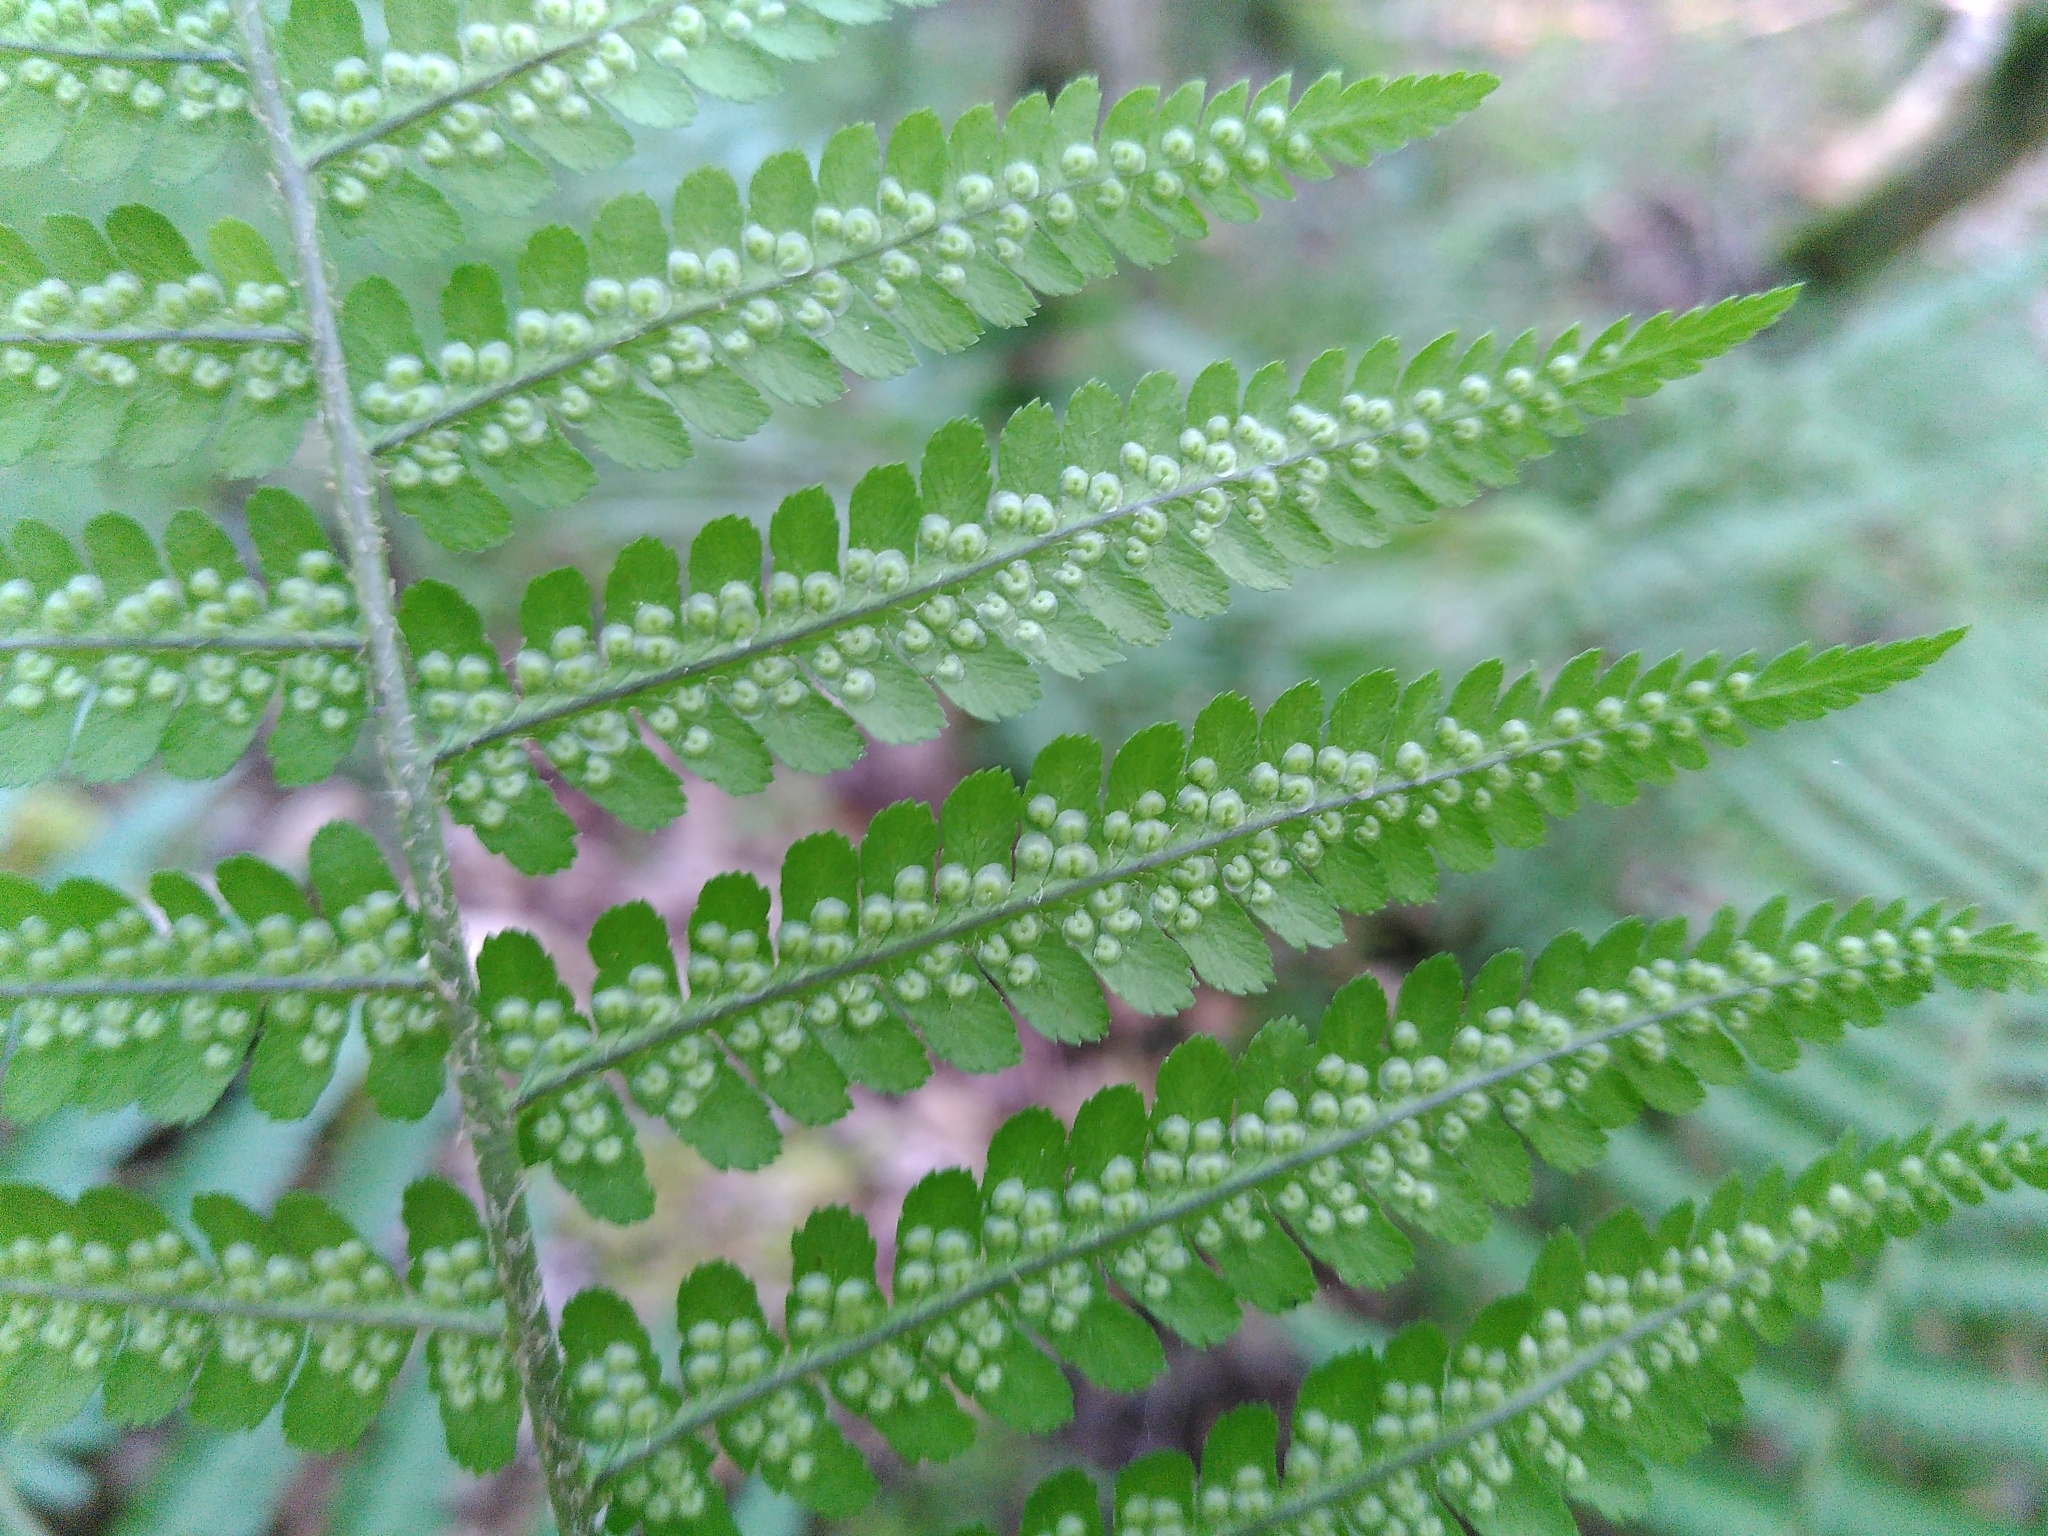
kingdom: Plantae
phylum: Tracheophyta
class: Polypodiopsida
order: Polypodiales
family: Dryopteridaceae
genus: Dryopteris
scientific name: Dryopteris filix-mas
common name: Male fern
